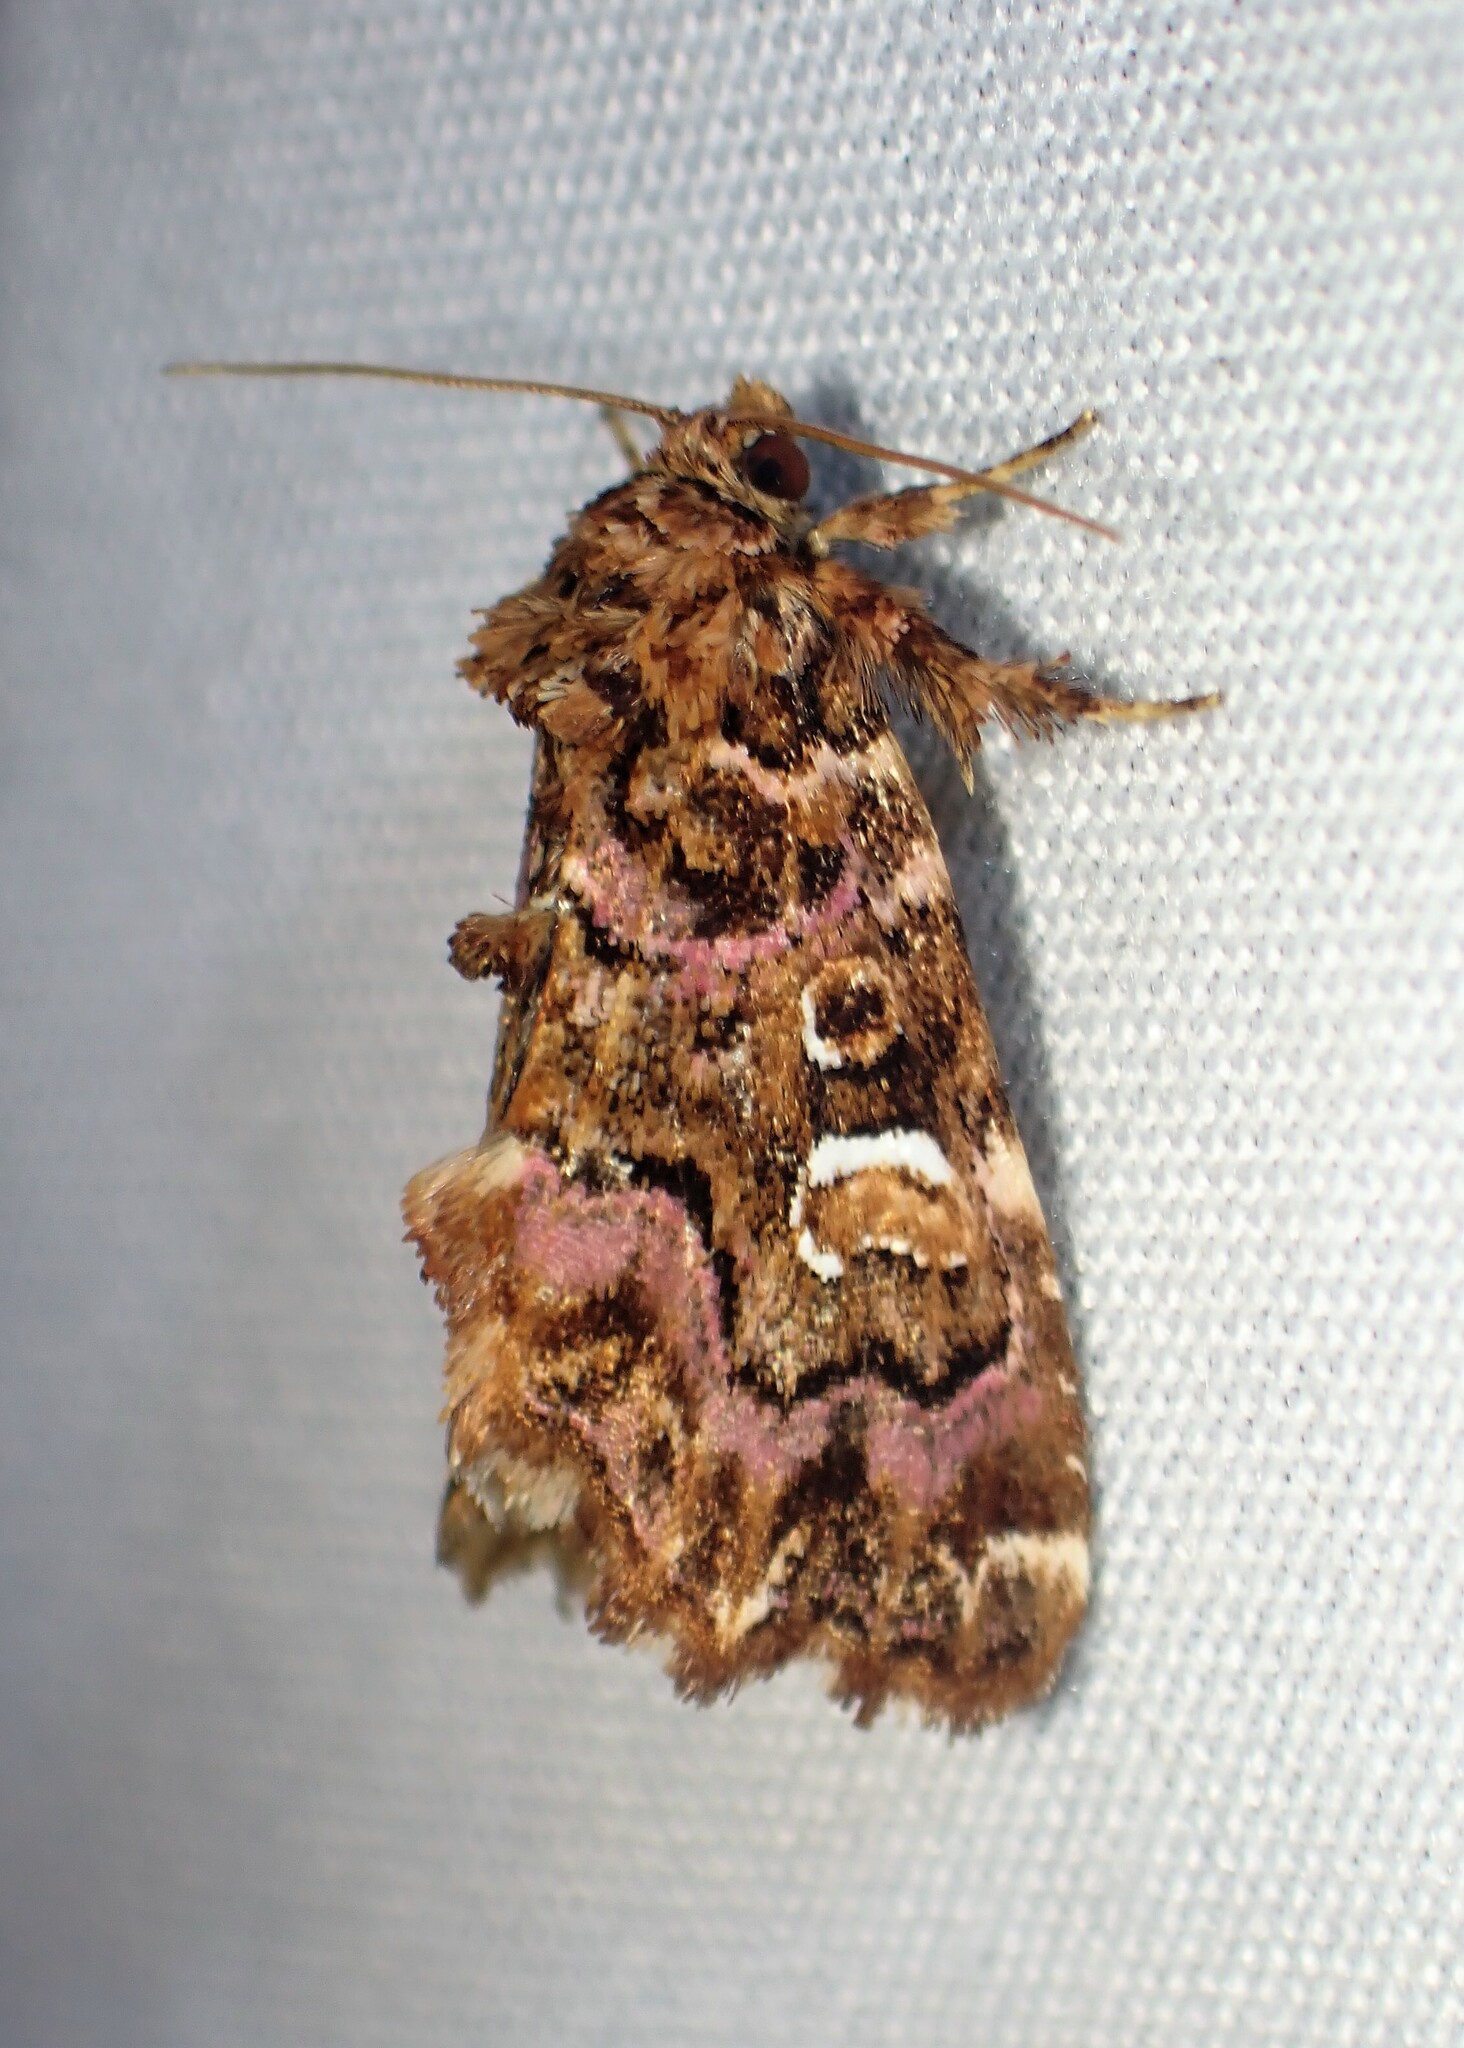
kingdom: Animalia
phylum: Arthropoda
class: Insecta
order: Lepidoptera
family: Noctuidae
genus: Callopistria
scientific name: Callopistria mollissima
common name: Pink-shaded fern moth
